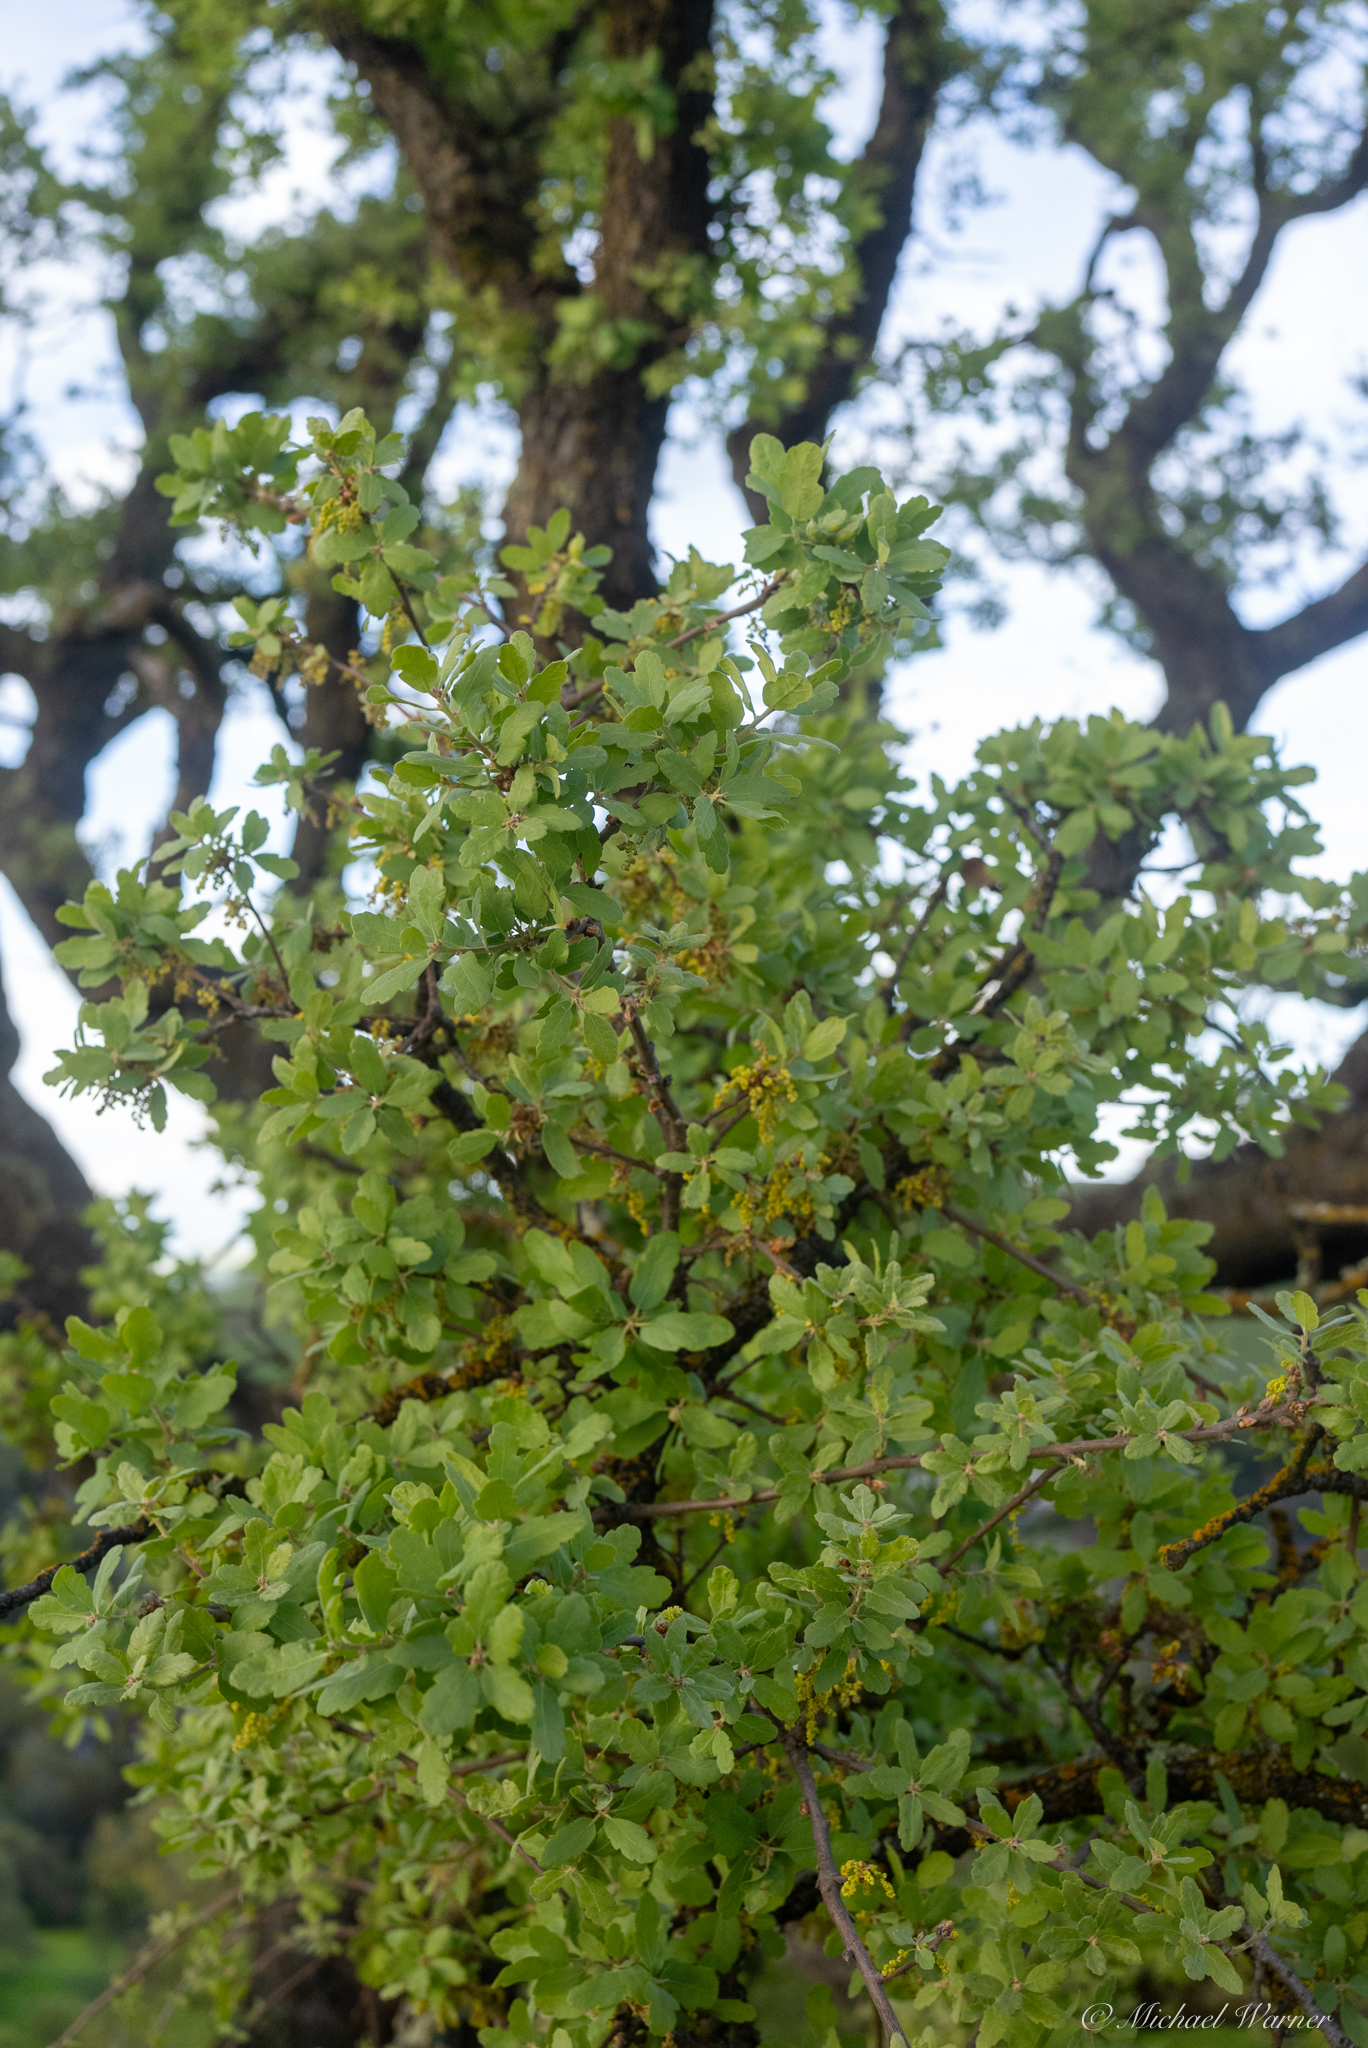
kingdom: Plantae
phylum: Tracheophyta
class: Magnoliopsida
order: Fagales
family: Fagaceae
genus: Quercus
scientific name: Quercus douglasii
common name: Blue oak
